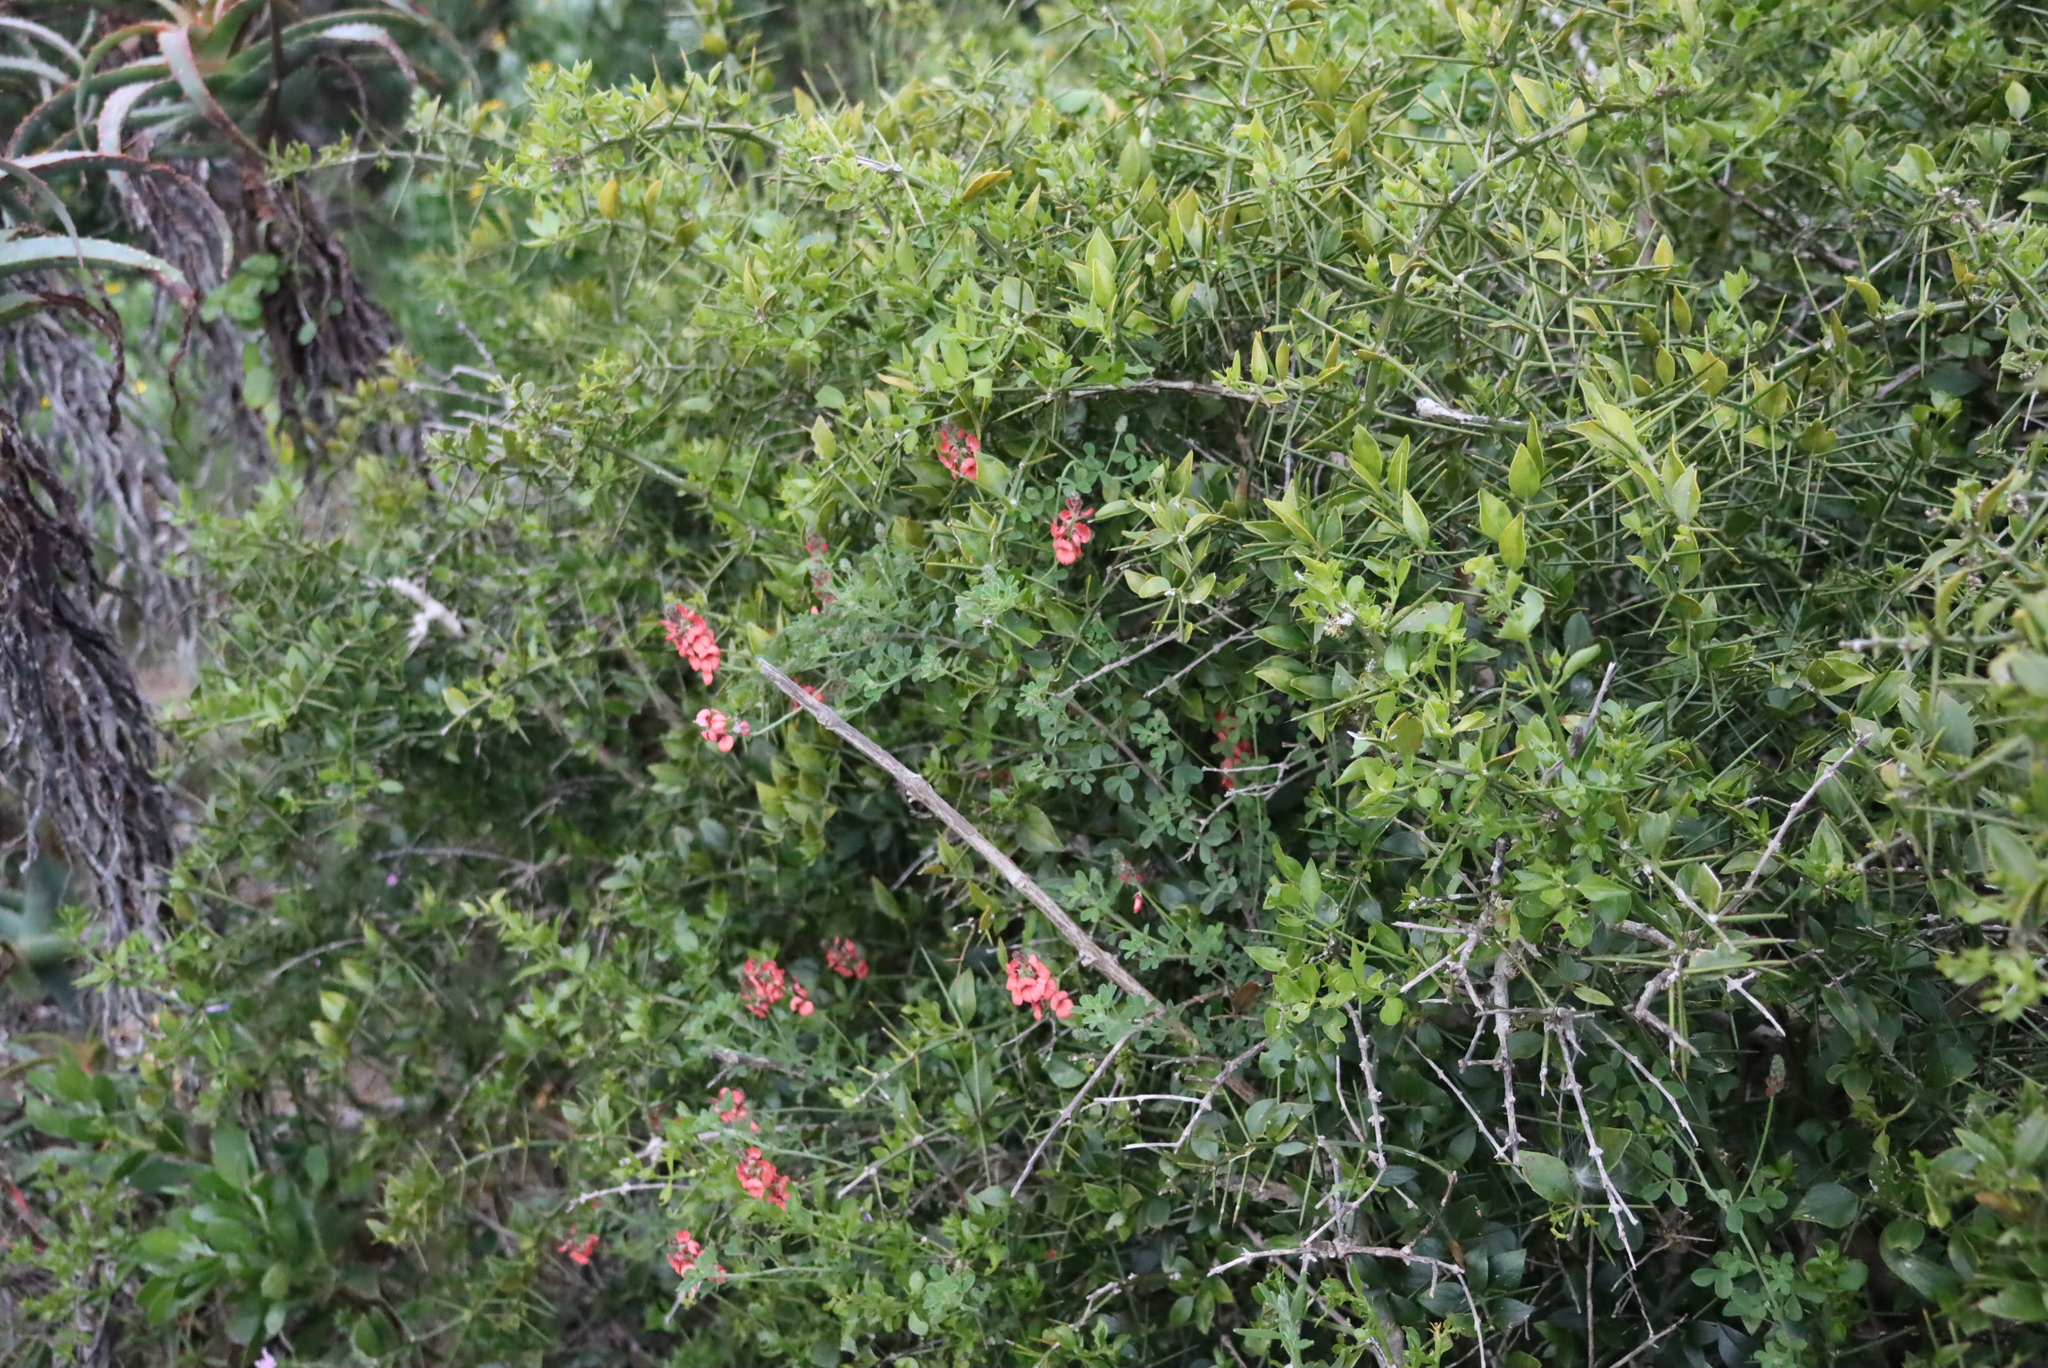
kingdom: Plantae
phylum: Tracheophyta
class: Magnoliopsida
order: Fabales
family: Fabaceae
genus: Indigofera
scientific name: Indigofera heterophylla
